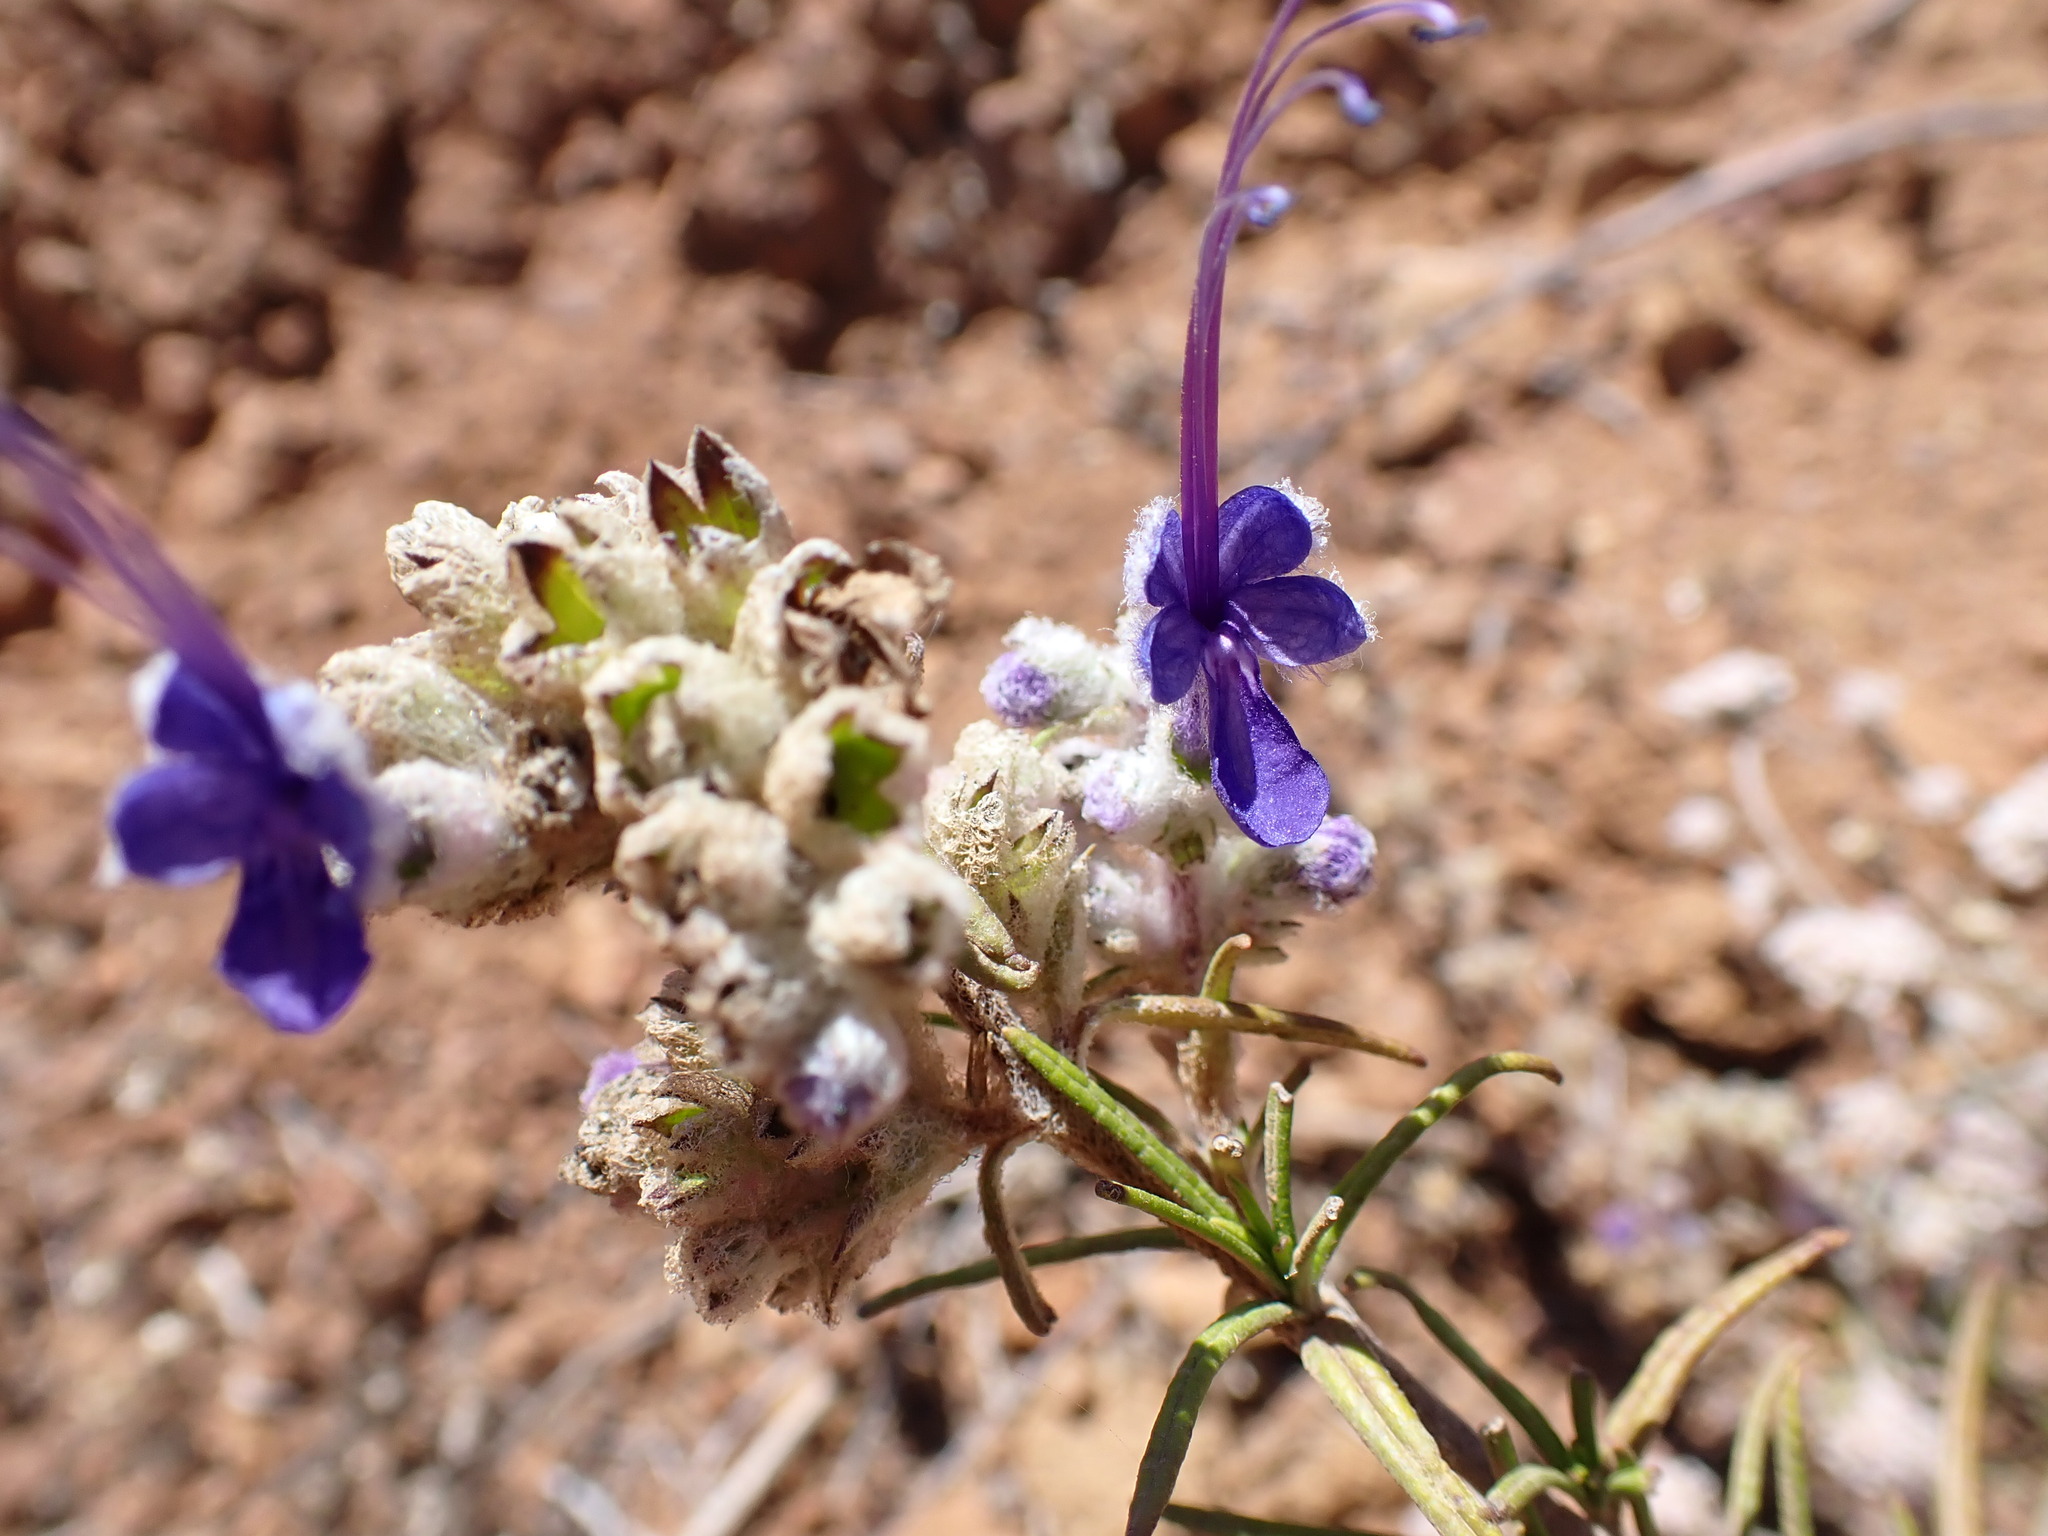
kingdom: Plantae
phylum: Tracheophyta
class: Magnoliopsida
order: Lamiales
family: Lamiaceae
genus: Trichostema
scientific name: Trichostema lanatum
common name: Woolly bluecurls
